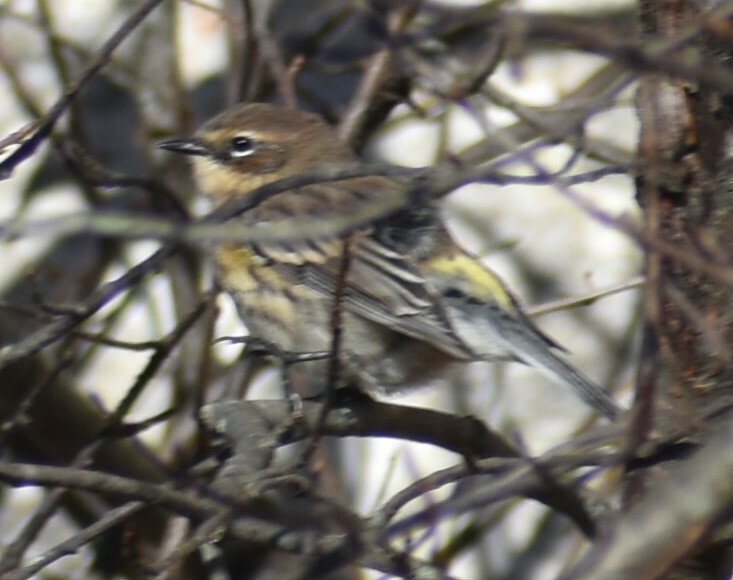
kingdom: Animalia
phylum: Chordata
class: Aves
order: Passeriformes
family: Parulidae
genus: Setophaga
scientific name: Setophaga coronata
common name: Myrtle warbler
